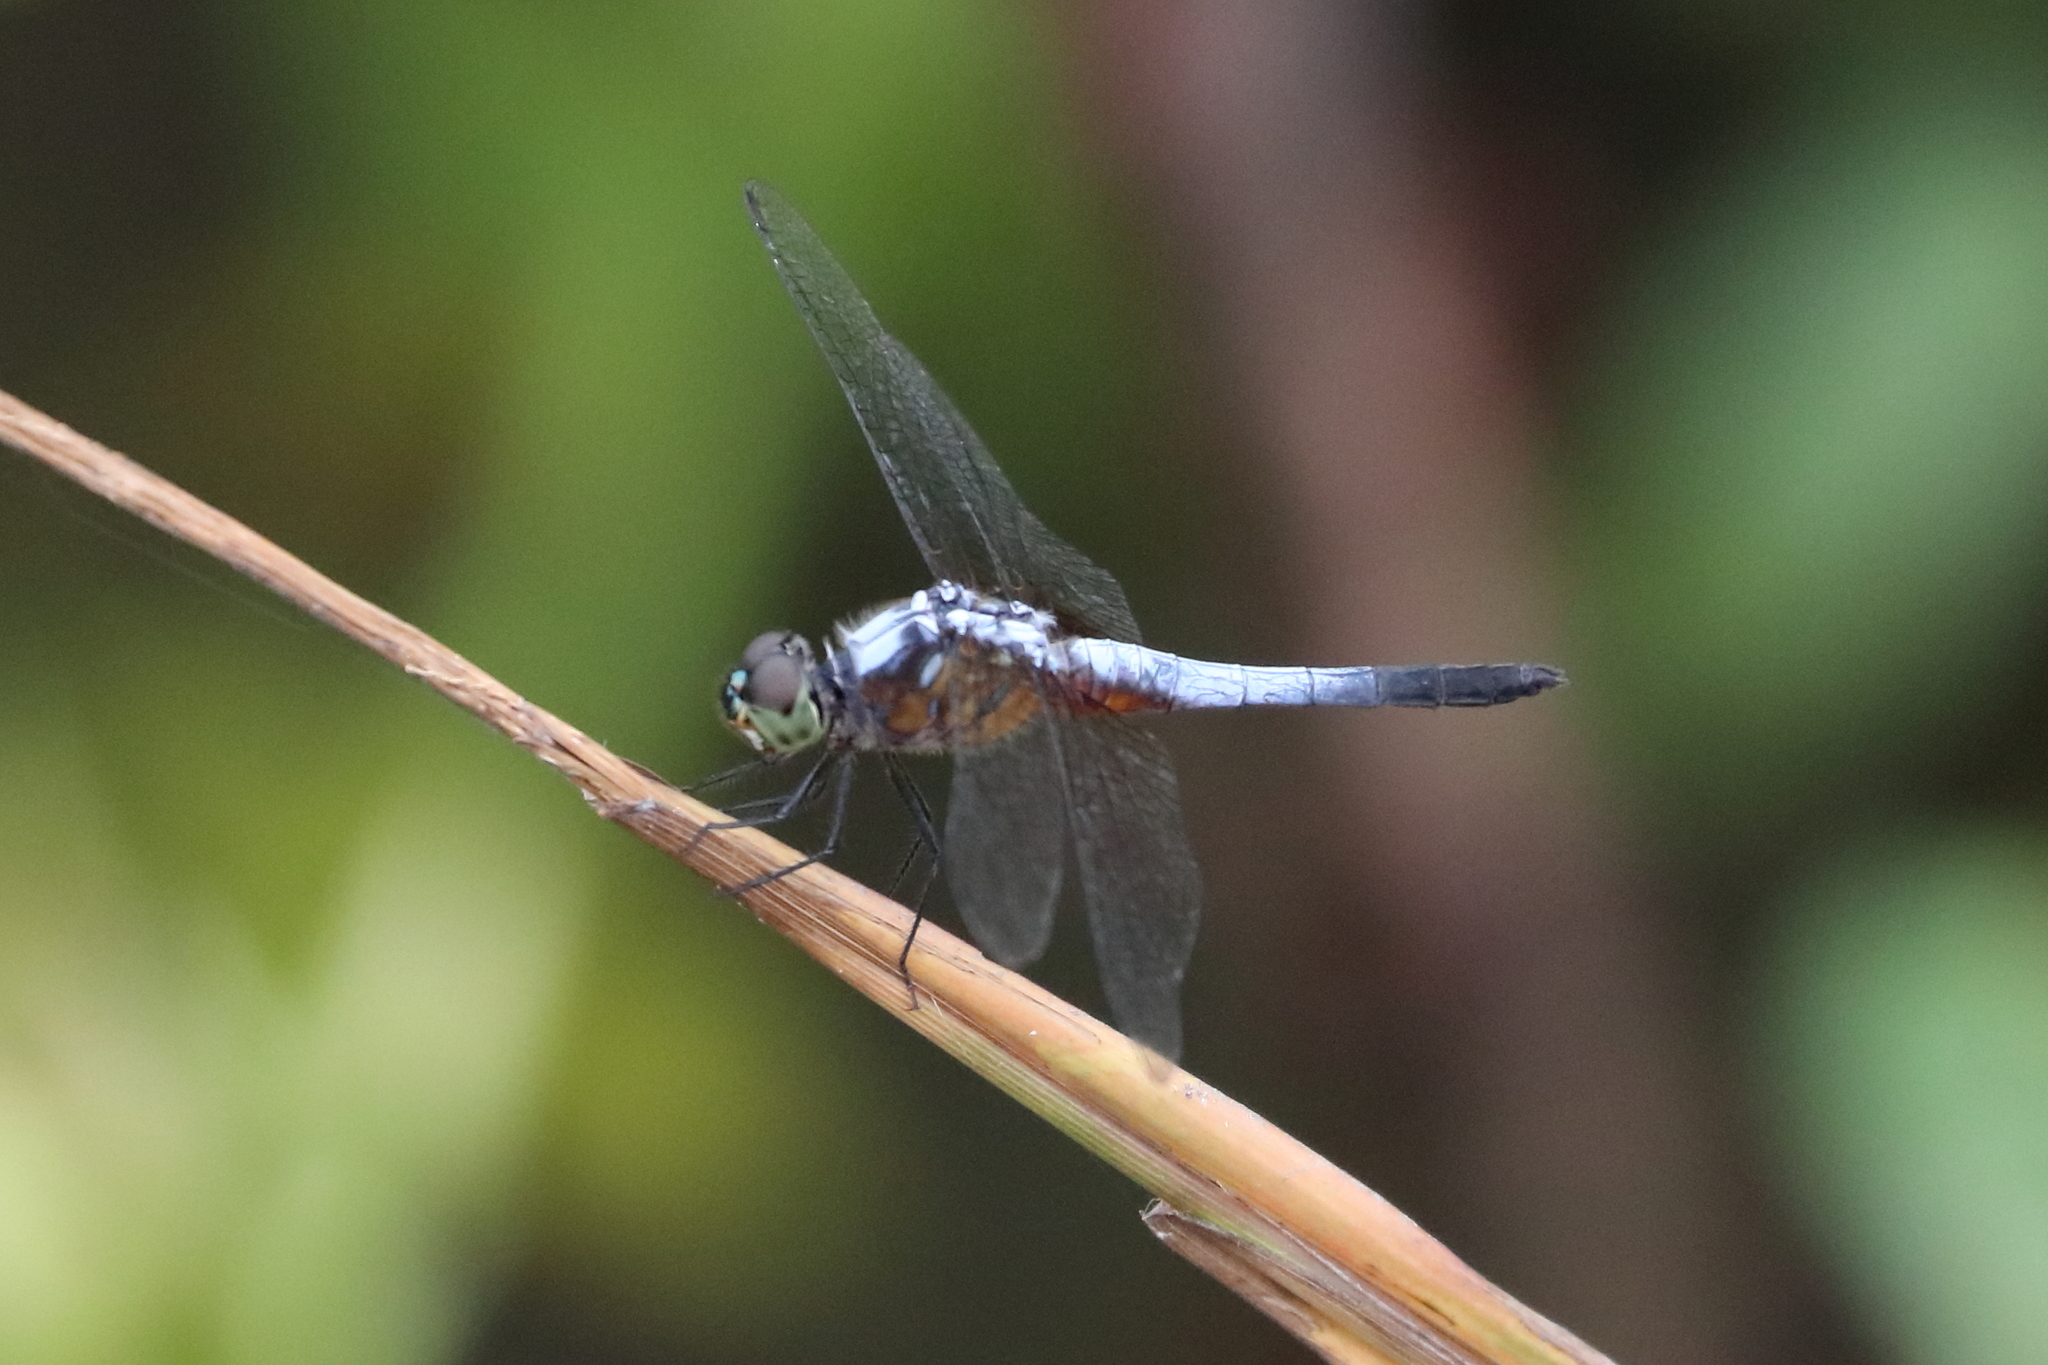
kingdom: Animalia
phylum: Arthropoda
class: Insecta
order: Odonata
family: Libellulidae
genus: Brachydiplax
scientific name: Brachydiplax chalybea
